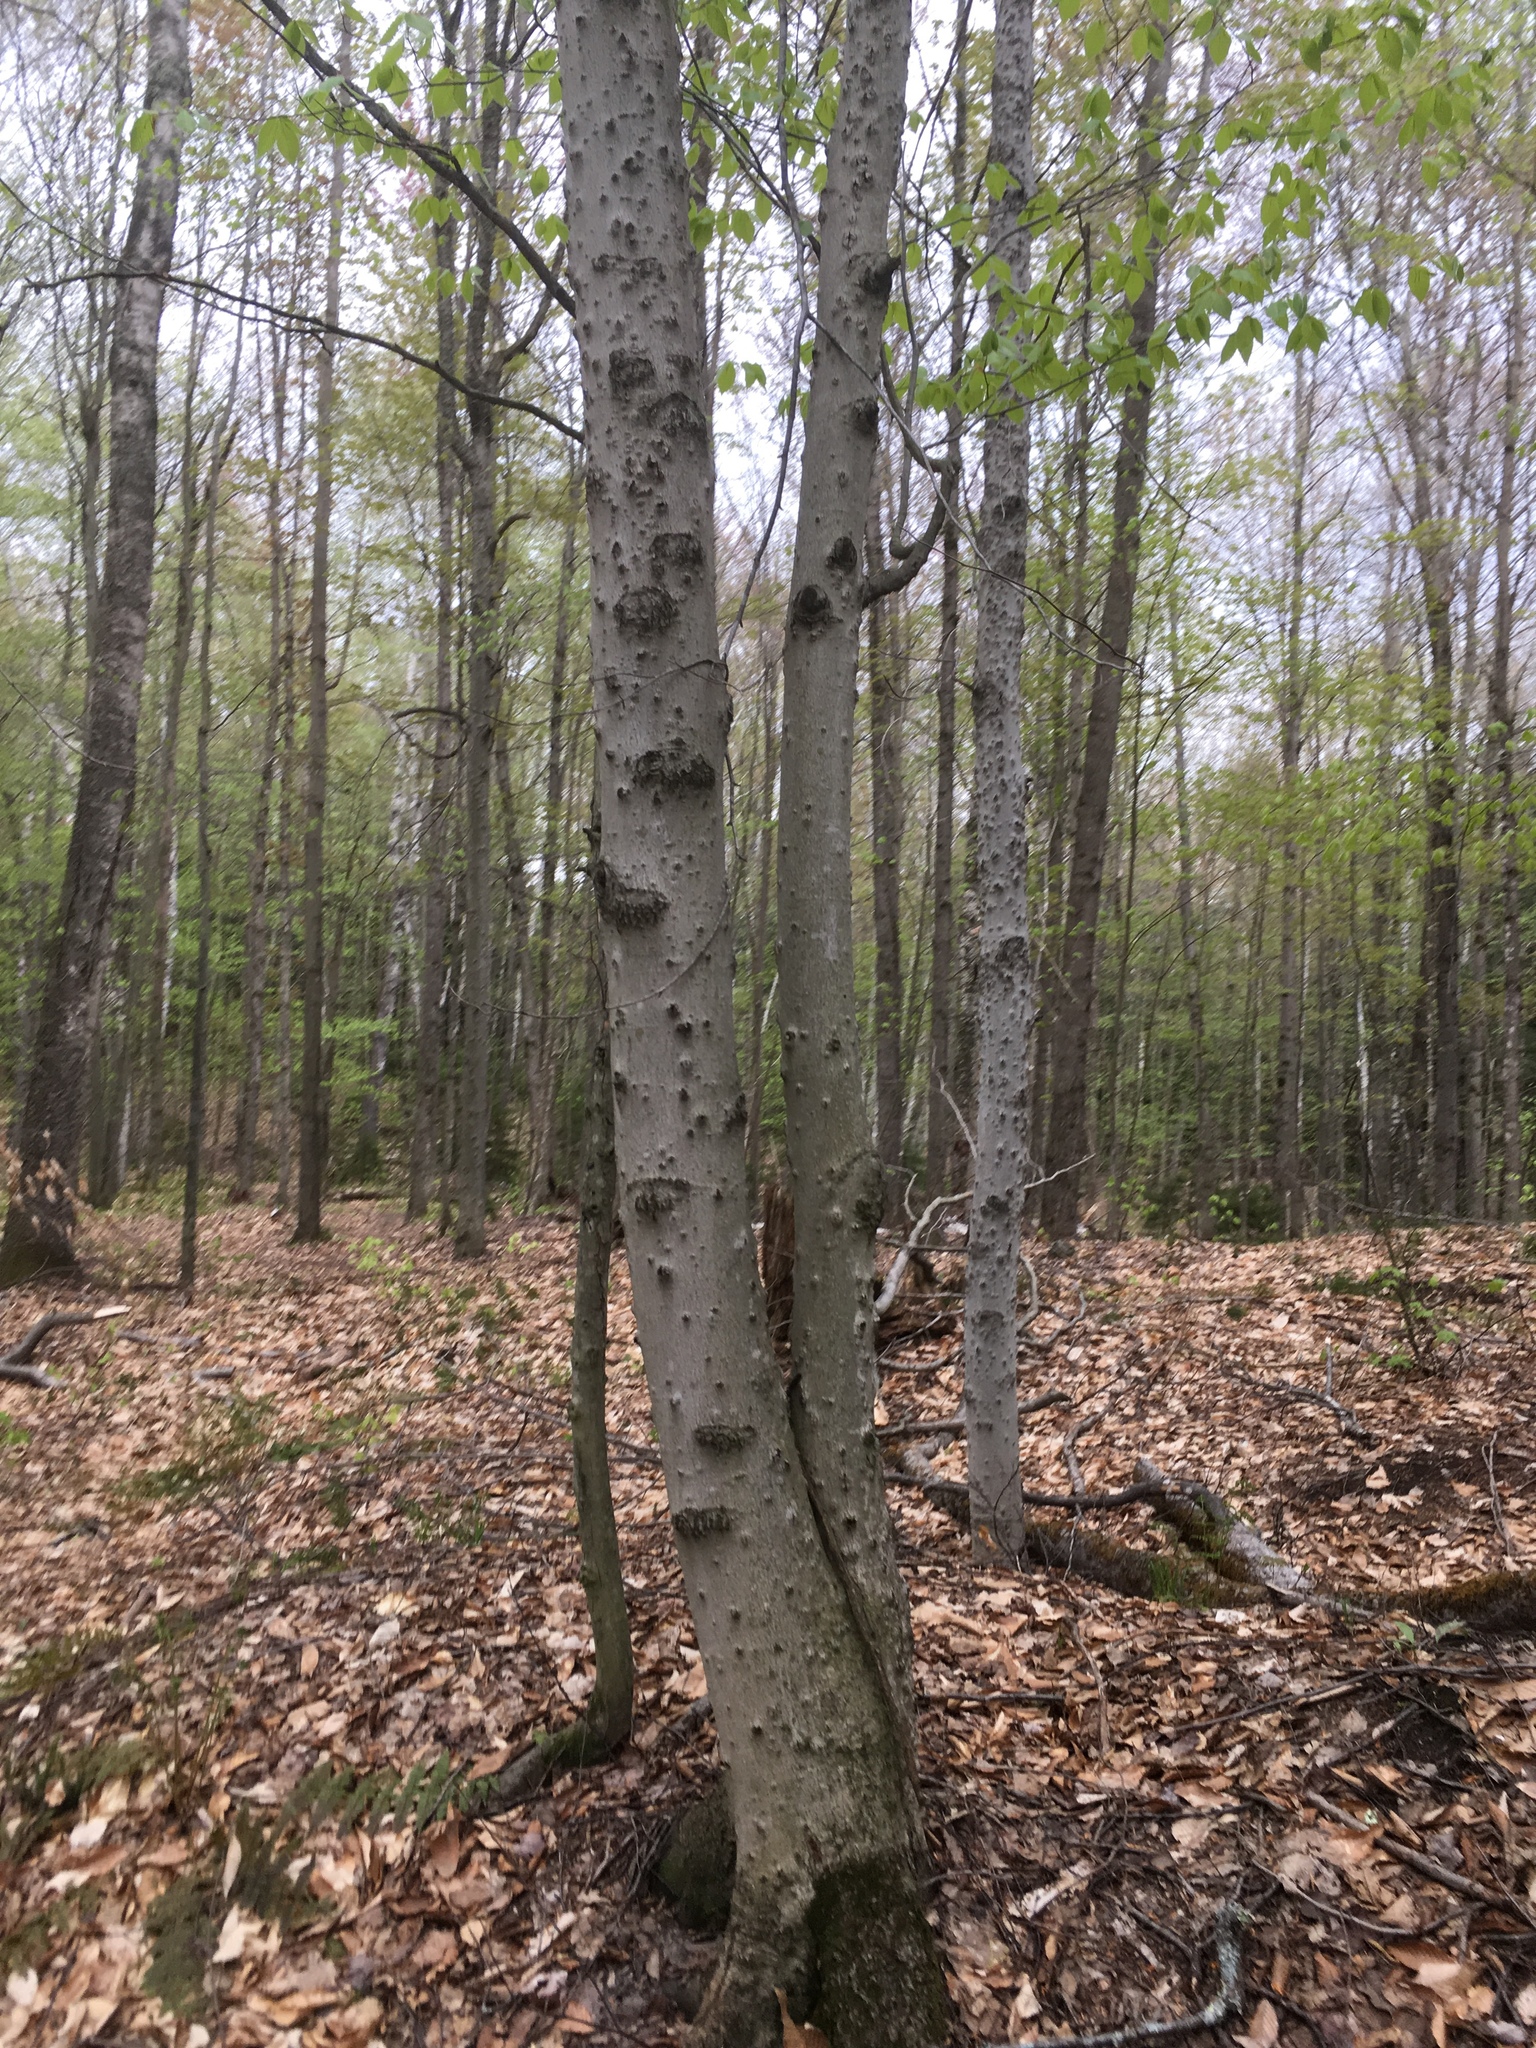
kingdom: Plantae
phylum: Tracheophyta
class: Magnoliopsida
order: Fagales
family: Fagaceae
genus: Fagus
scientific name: Fagus grandifolia
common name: American beech
